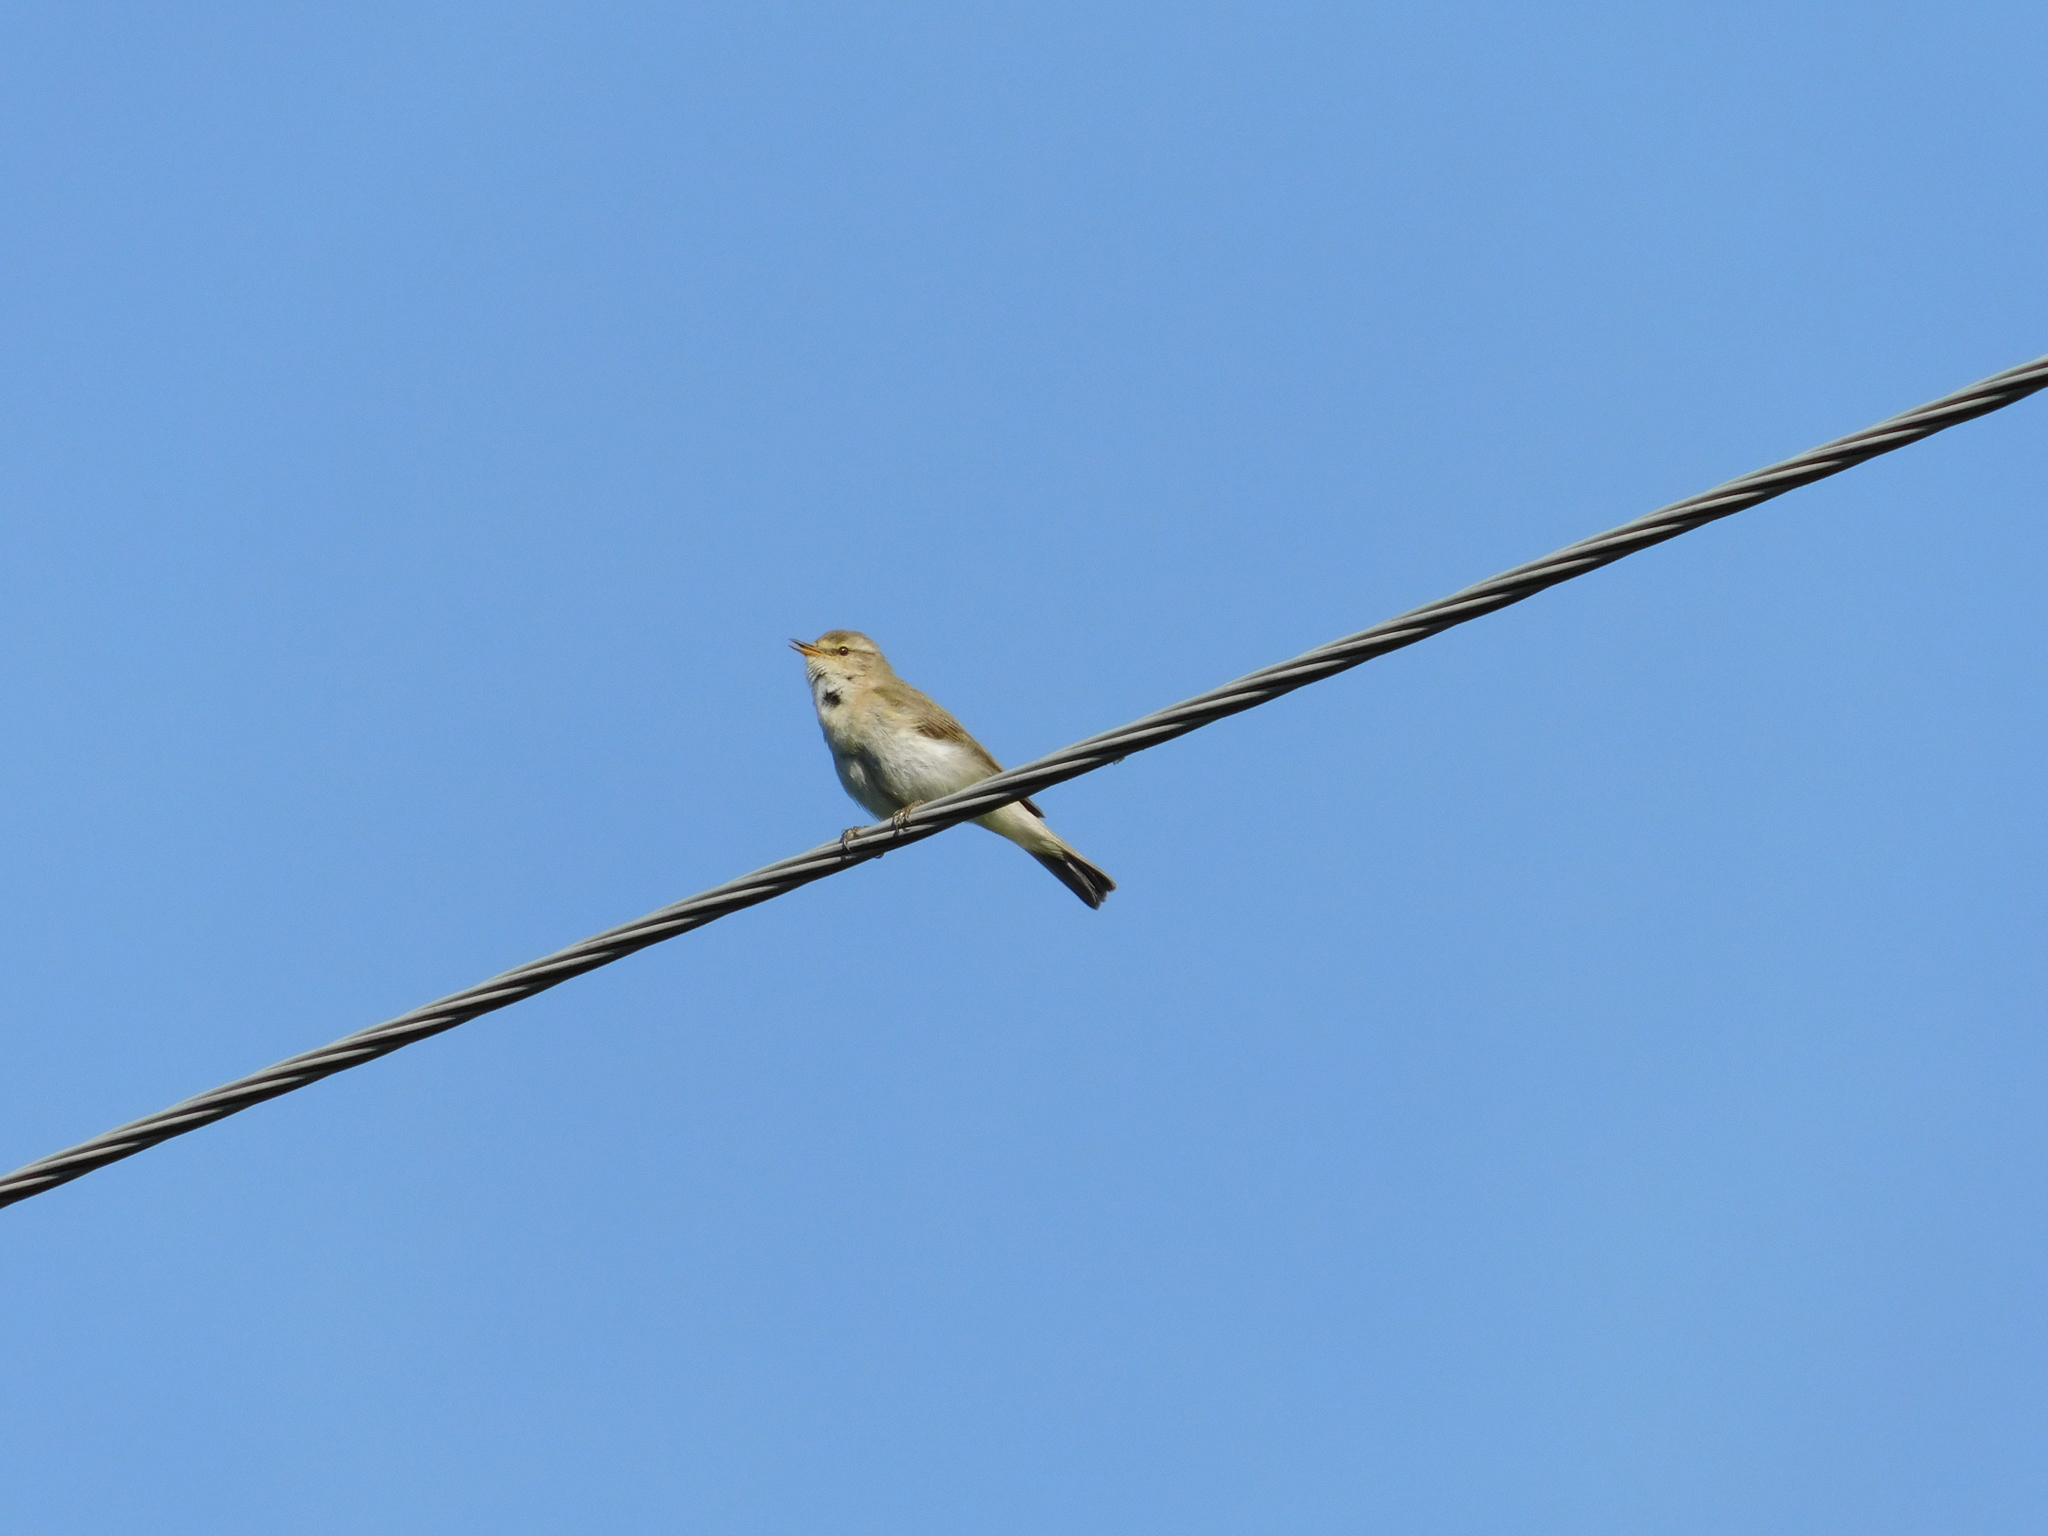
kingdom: Animalia
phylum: Chordata
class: Aves
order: Passeriformes
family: Phylloscopidae
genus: Phylloscopus
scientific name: Phylloscopus collybita
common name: Common chiffchaff
